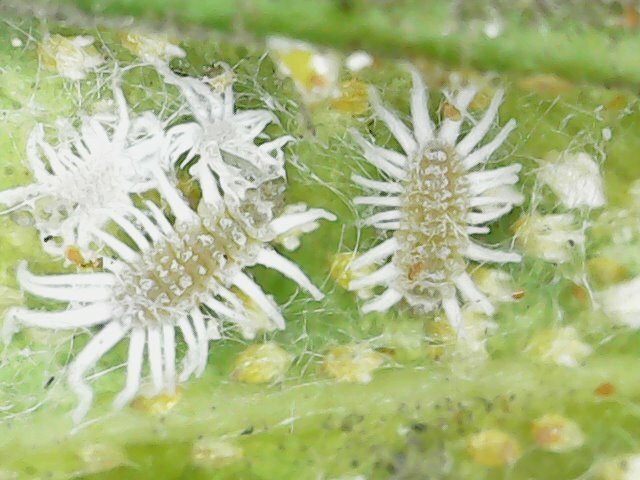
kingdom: Animalia
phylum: Arthropoda
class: Insecta
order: Hemiptera
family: Margarodidae
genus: Icerya
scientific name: Icerya aegyptiaca
